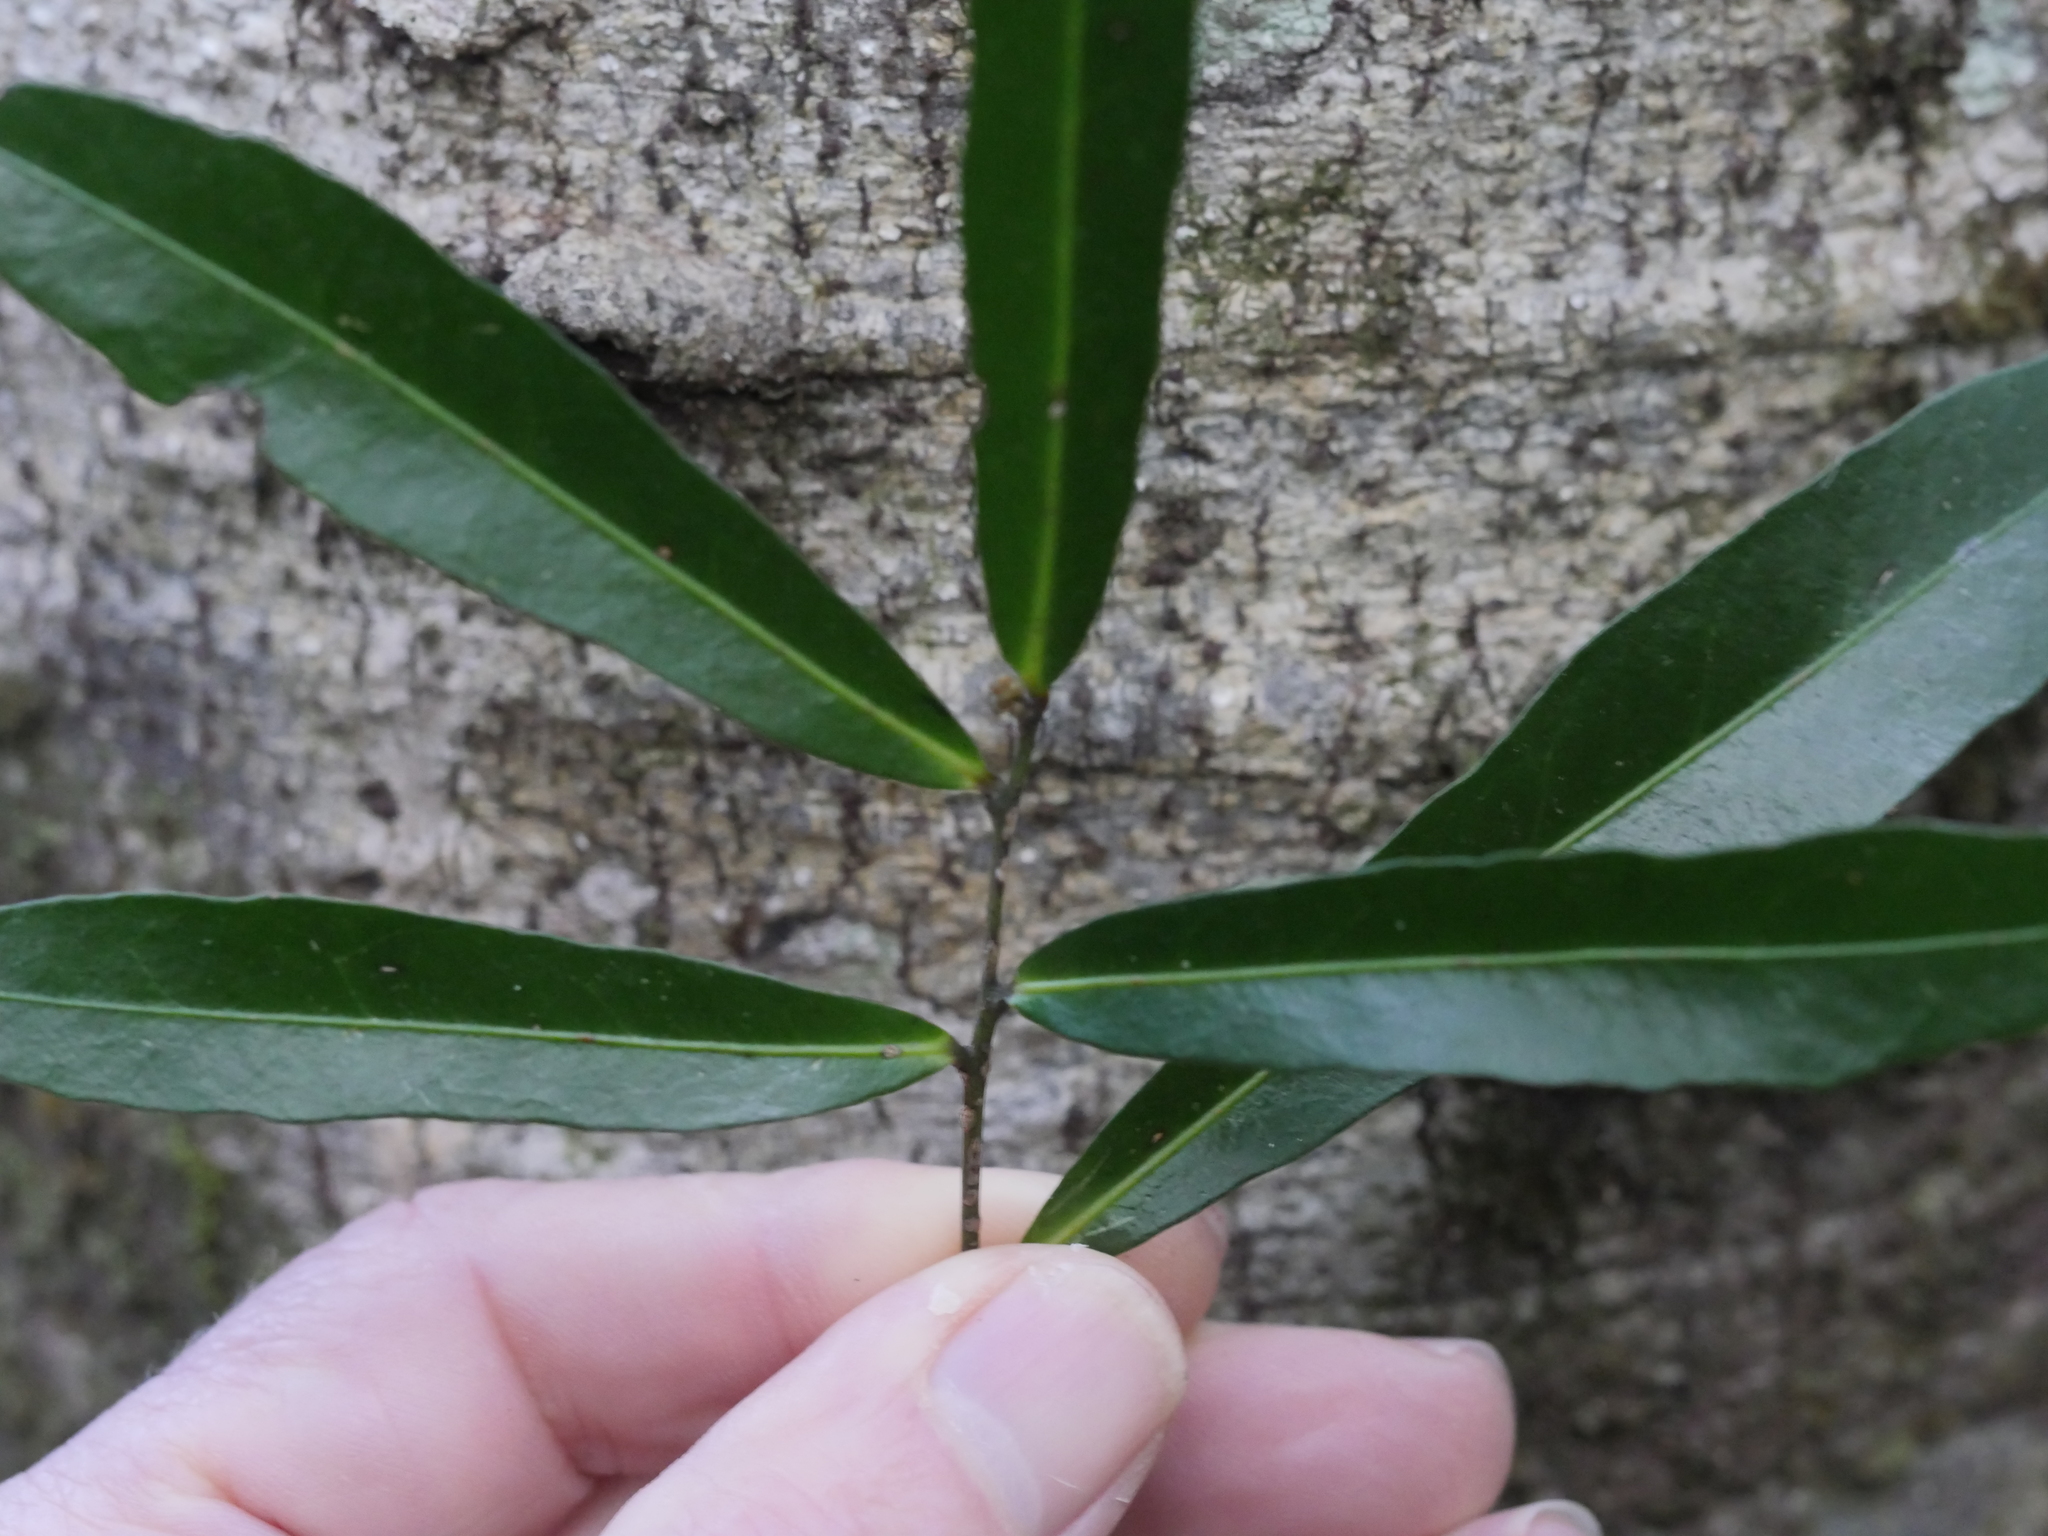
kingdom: Plantae
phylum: Tracheophyta
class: Magnoliopsida
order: Santalales
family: Nanodeaceae
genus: Mida
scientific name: Mida salicifolia
